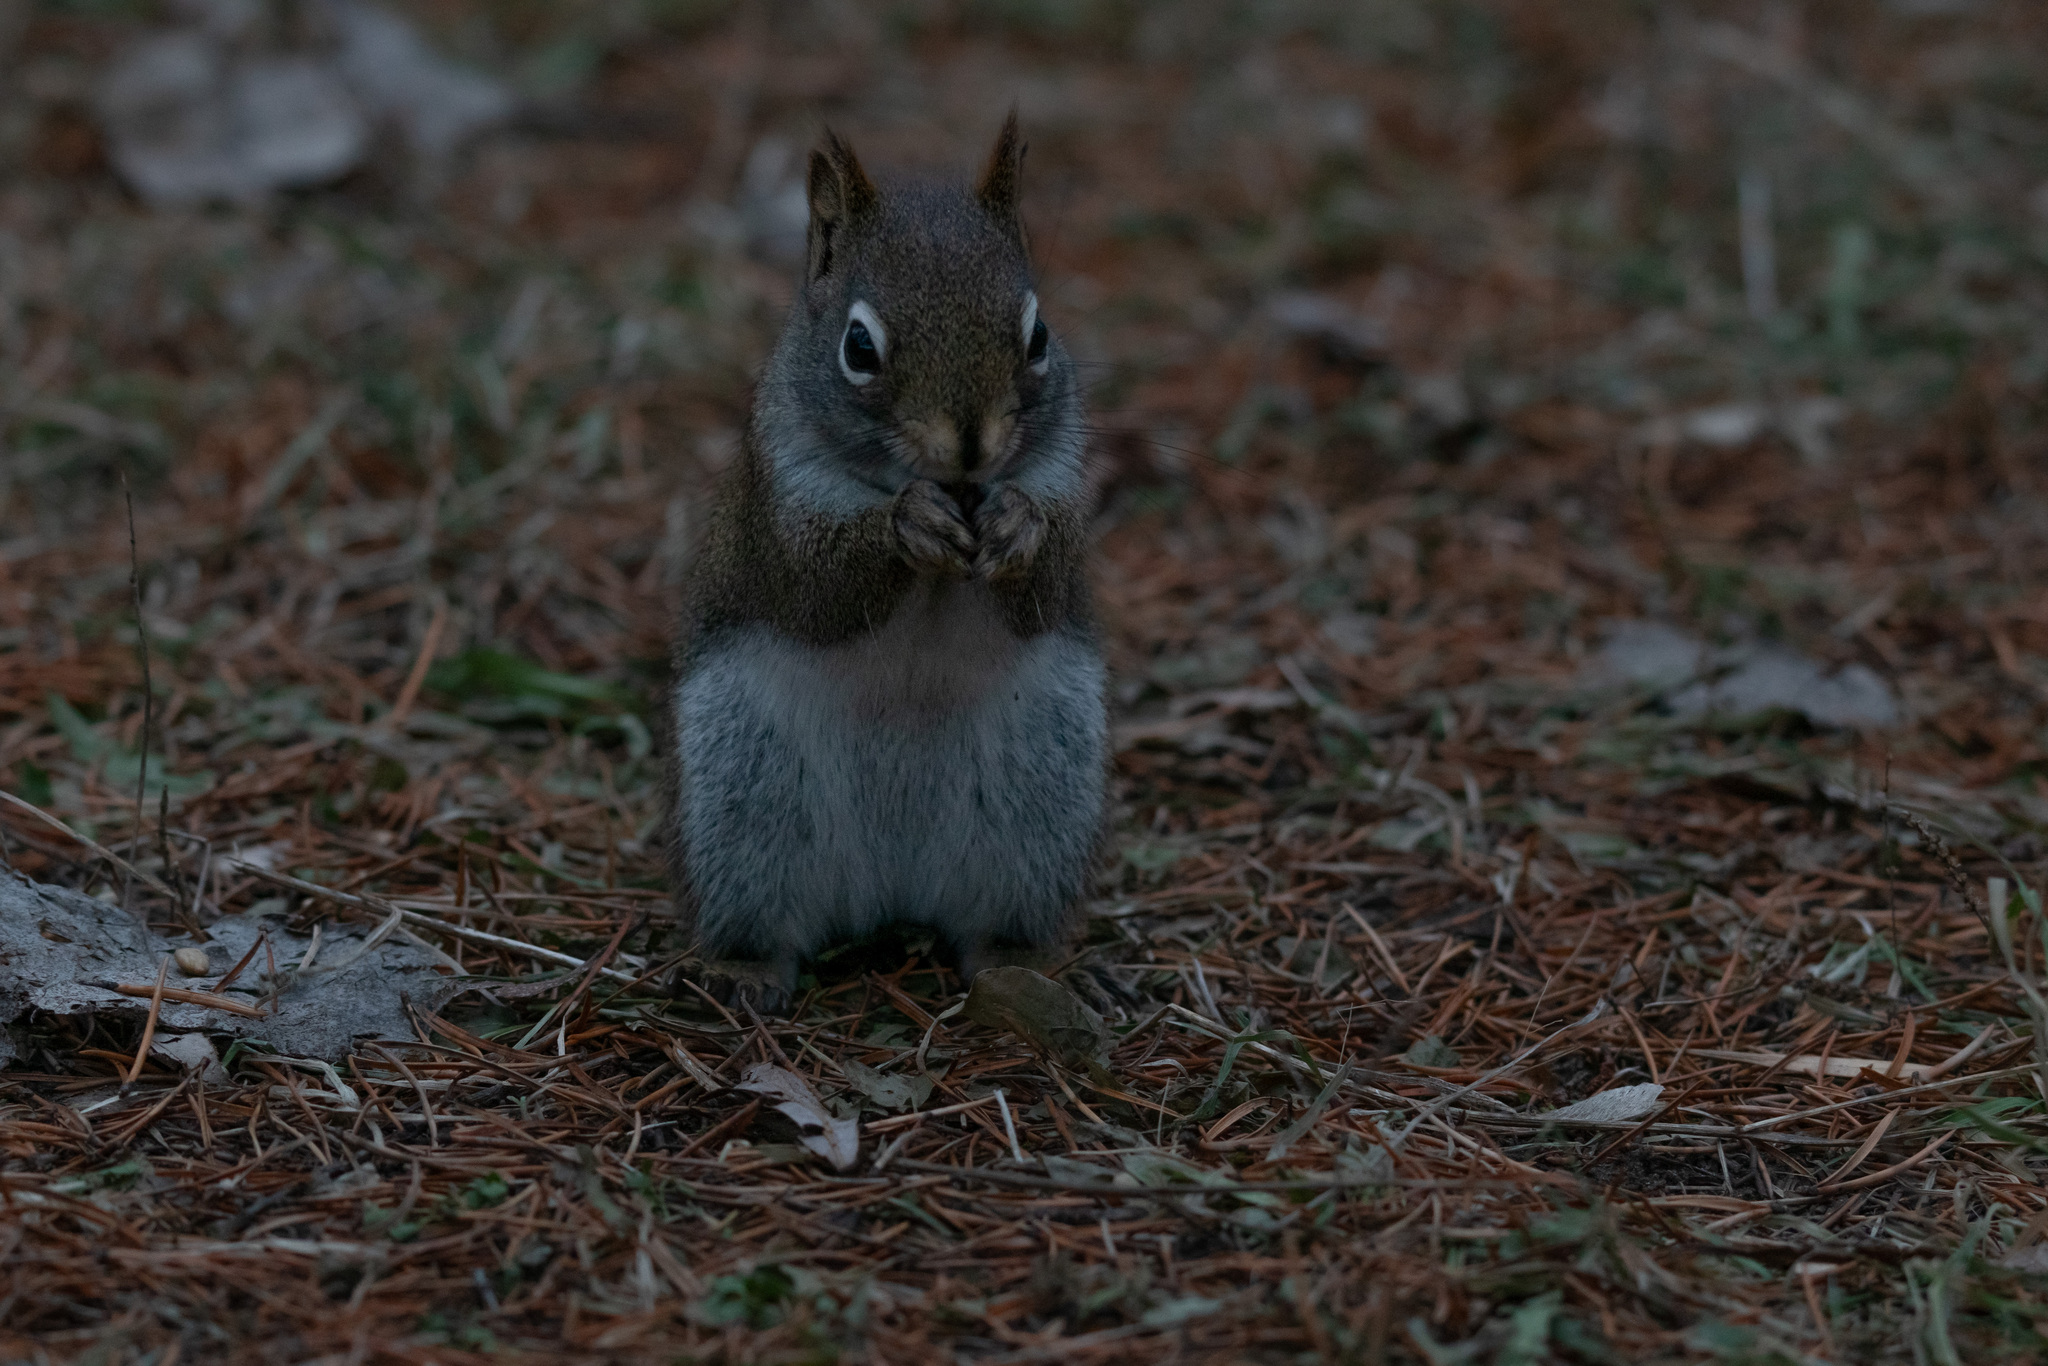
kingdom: Animalia
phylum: Chordata
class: Mammalia
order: Rodentia
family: Sciuridae
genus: Tamiasciurus
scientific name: Tamiasciurus hudsonicus
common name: Red squirrel
